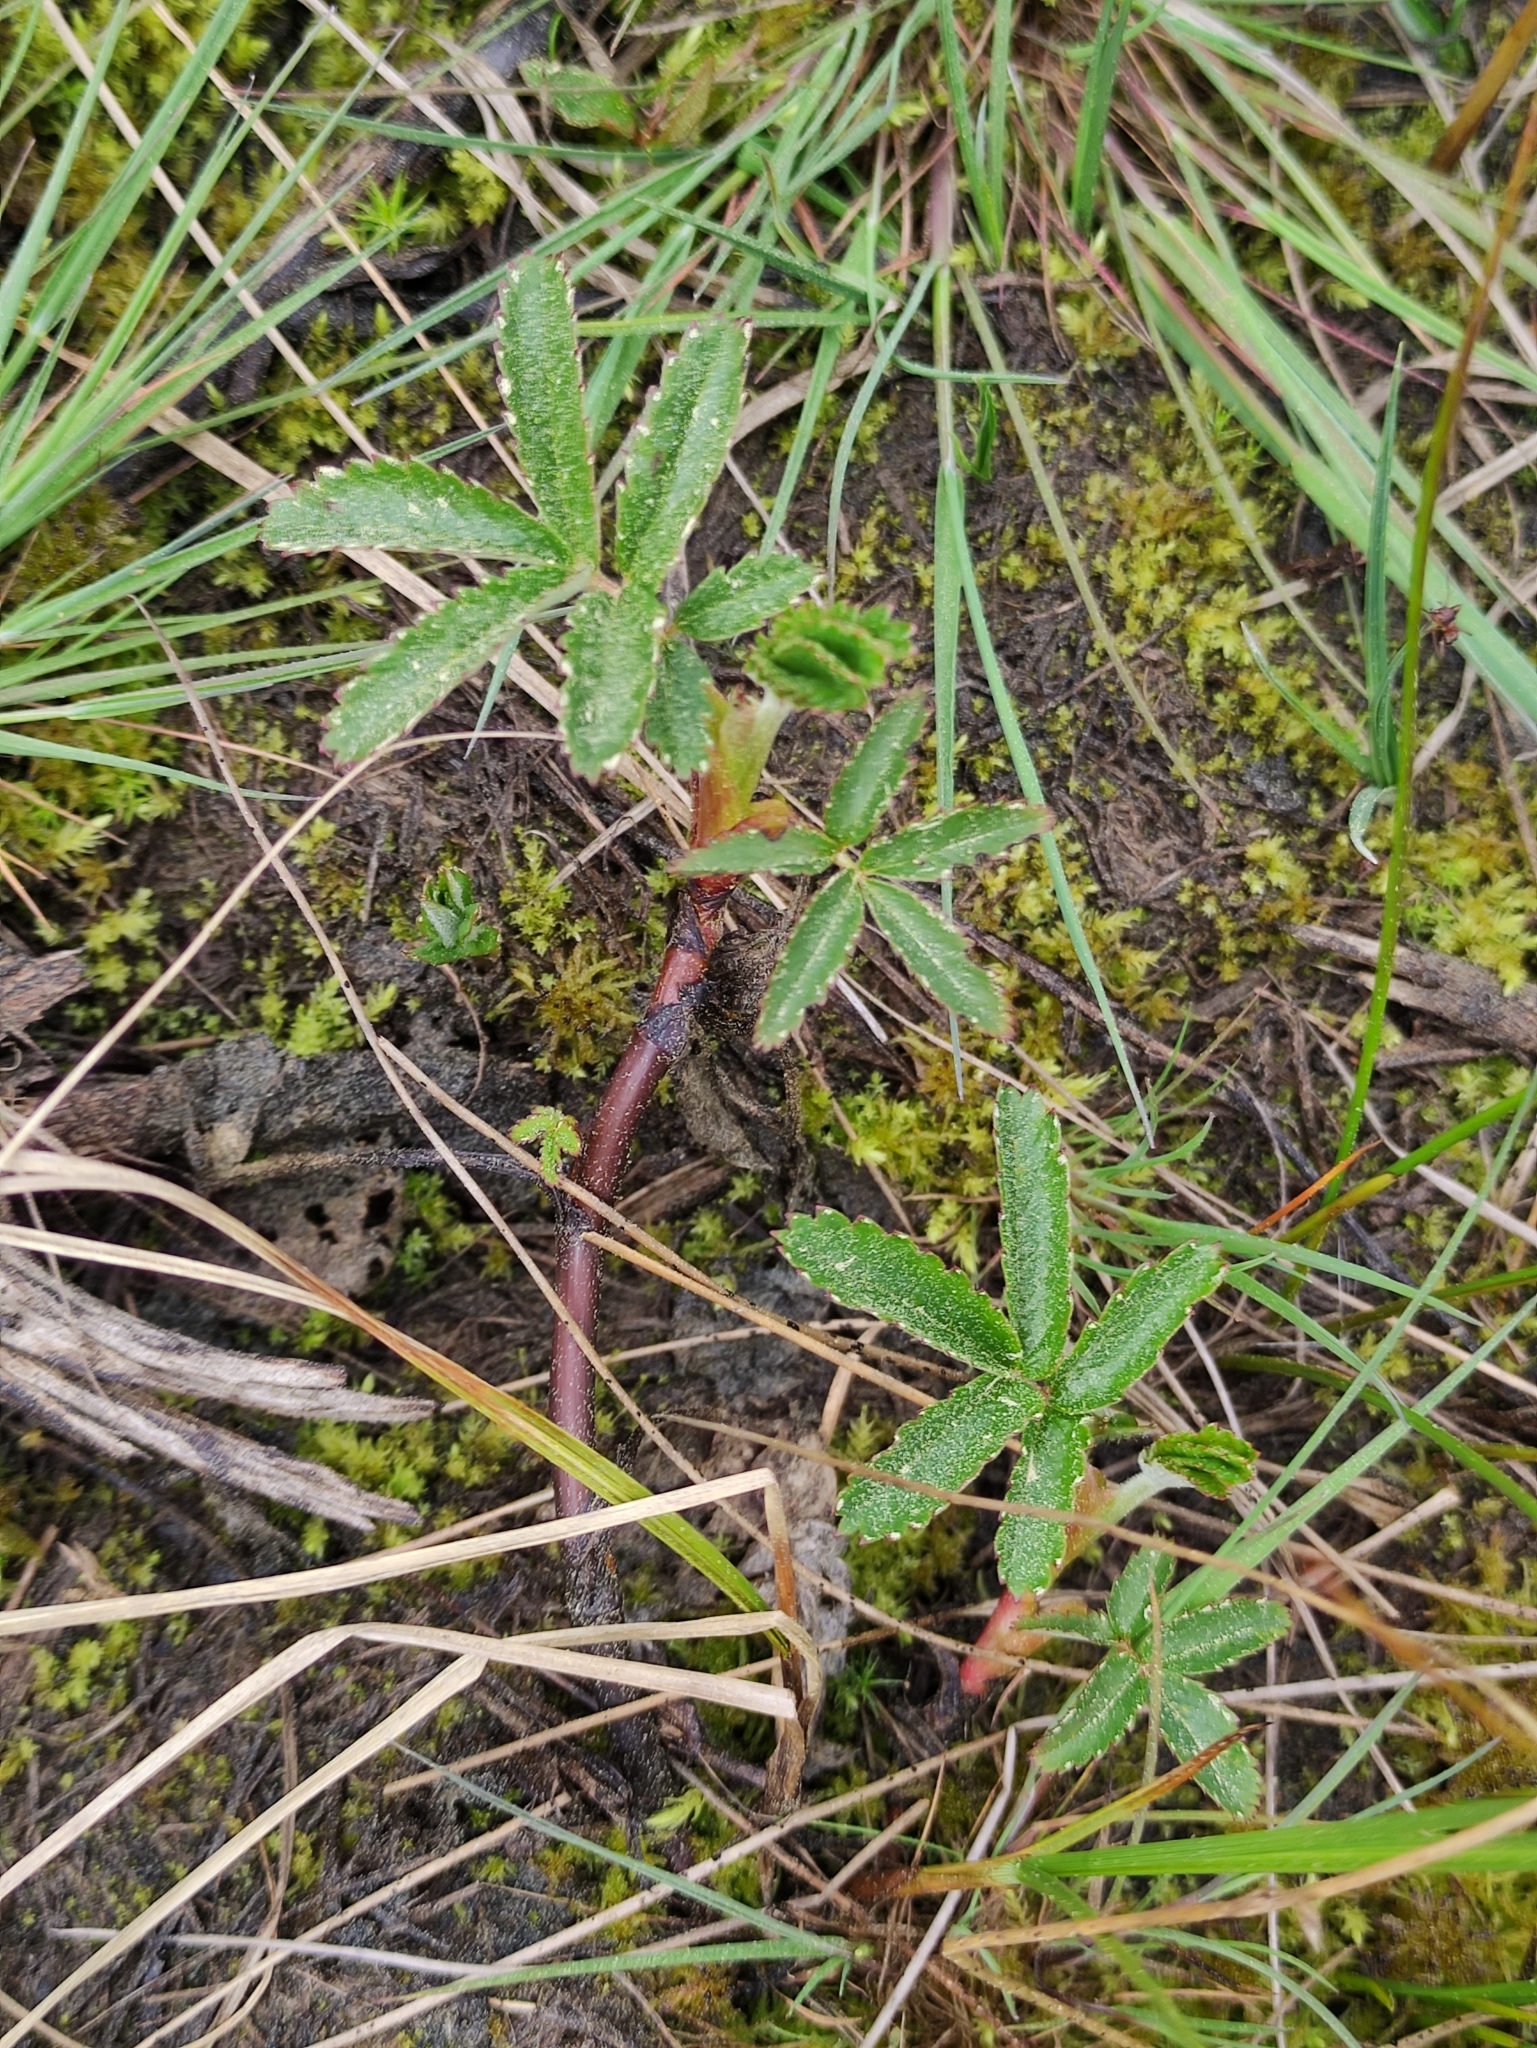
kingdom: Plantae
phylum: Tracheophyta
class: Magnoliopsida
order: Rosales
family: Rosaceae
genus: Comarum
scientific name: Comarum palustre
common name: Marsh cinquefoil
